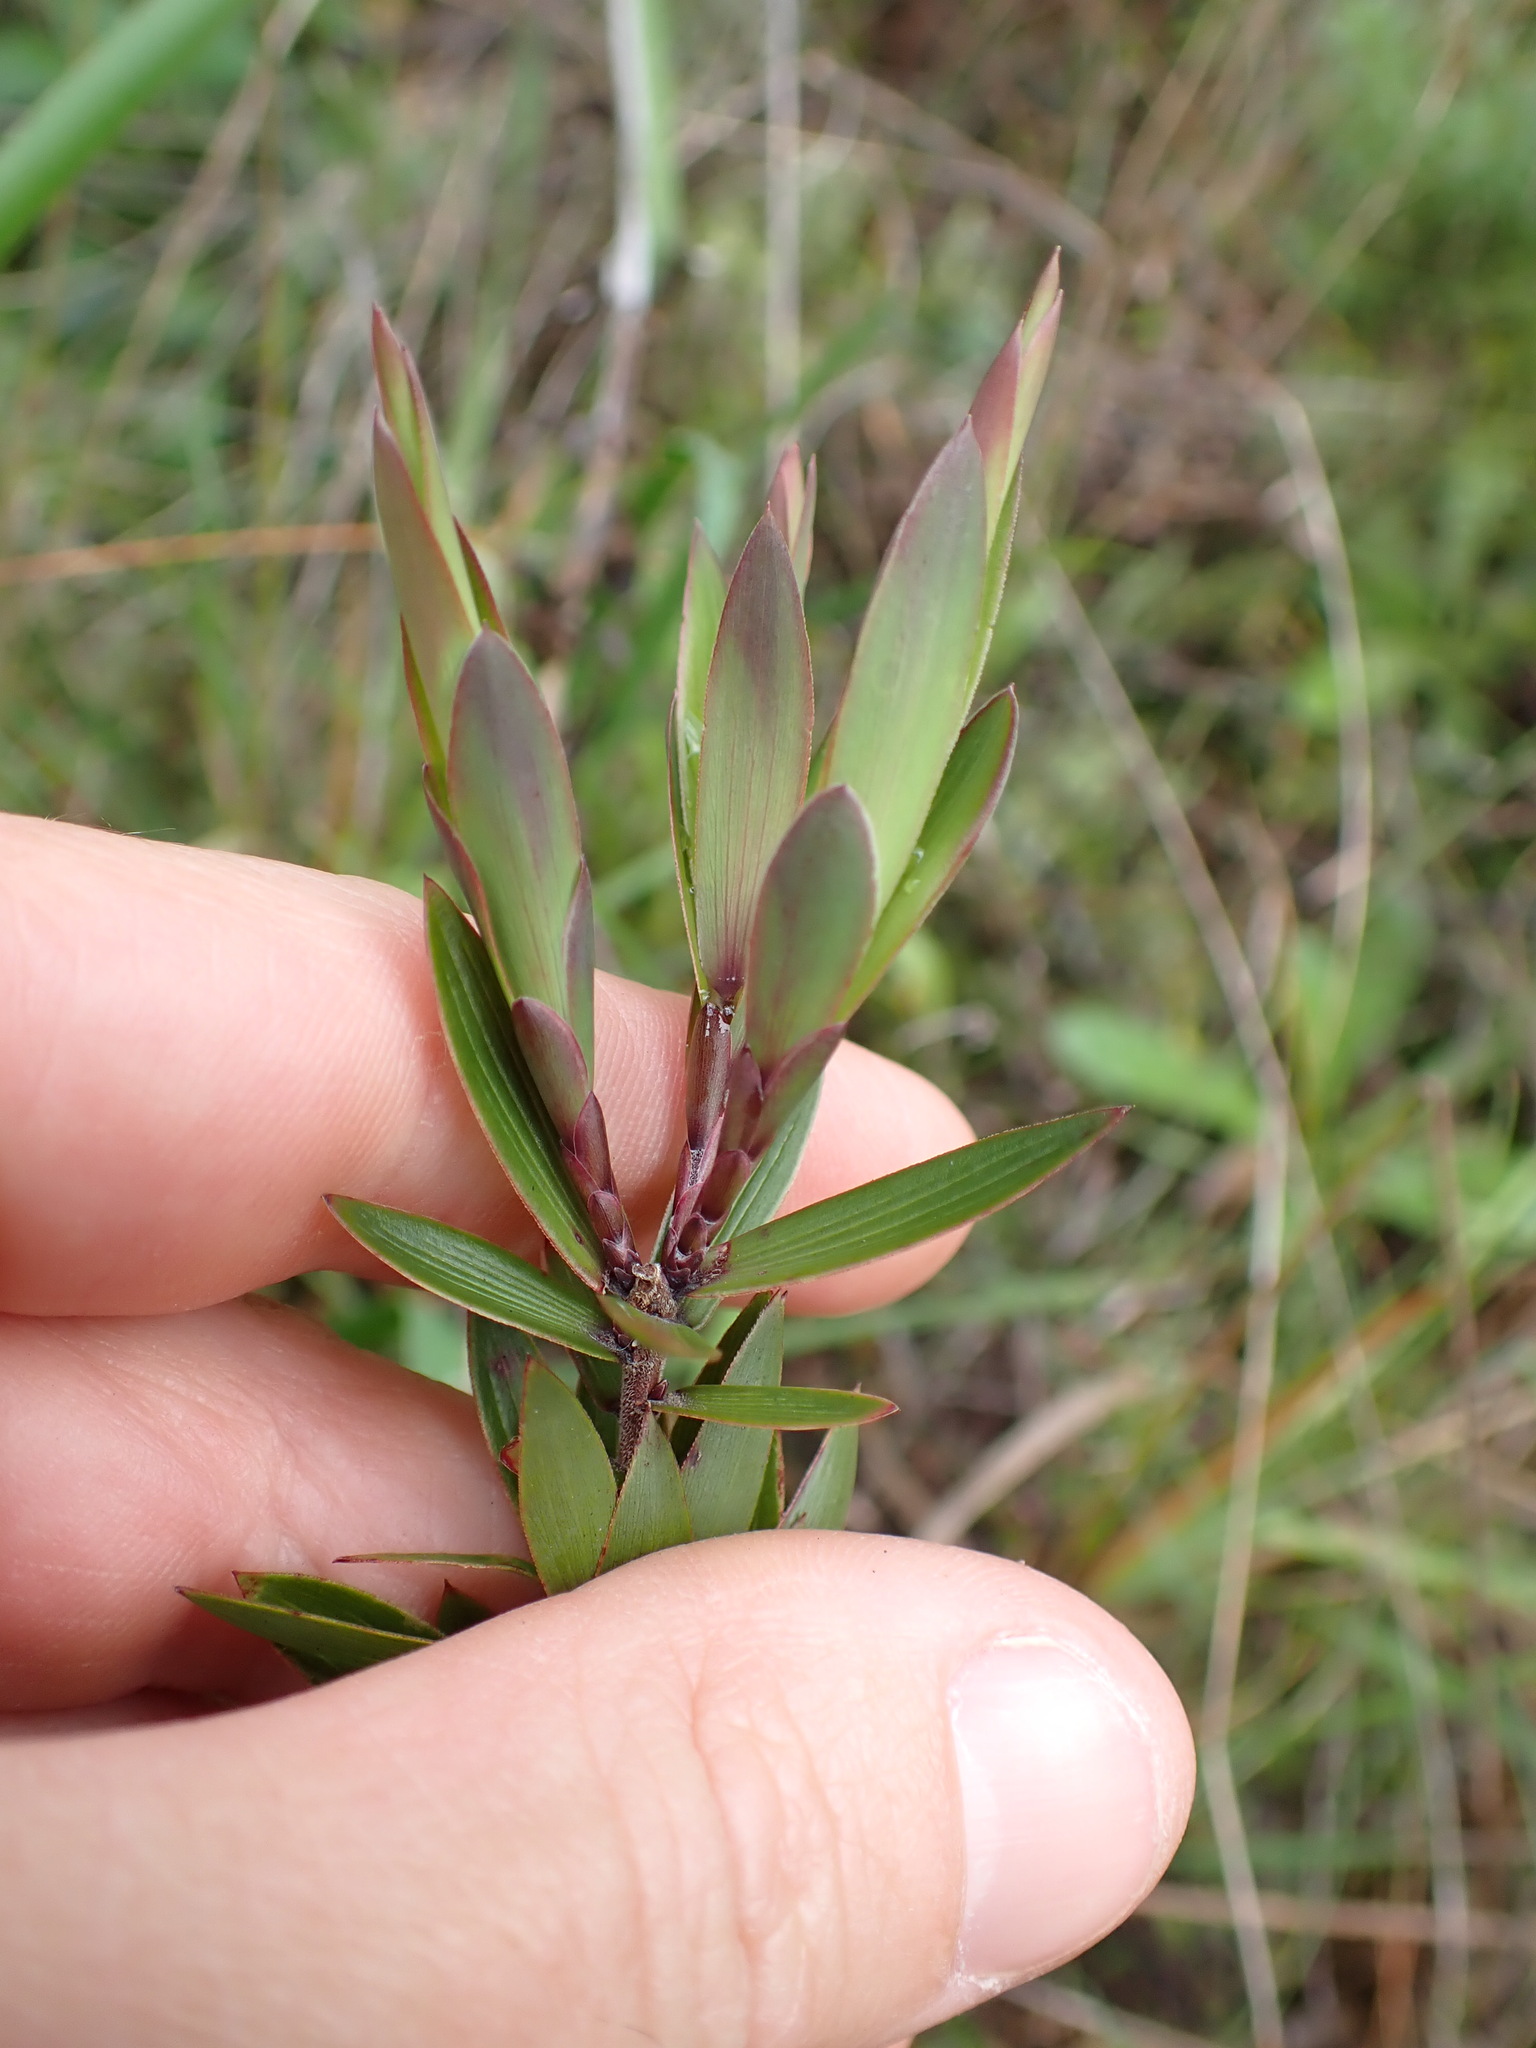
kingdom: Plantae
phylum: Tracheophyta
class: Magnoliopsida
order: Ericales
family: Ericaceae
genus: Leucopogon
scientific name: Leucopogon fasciculatus
